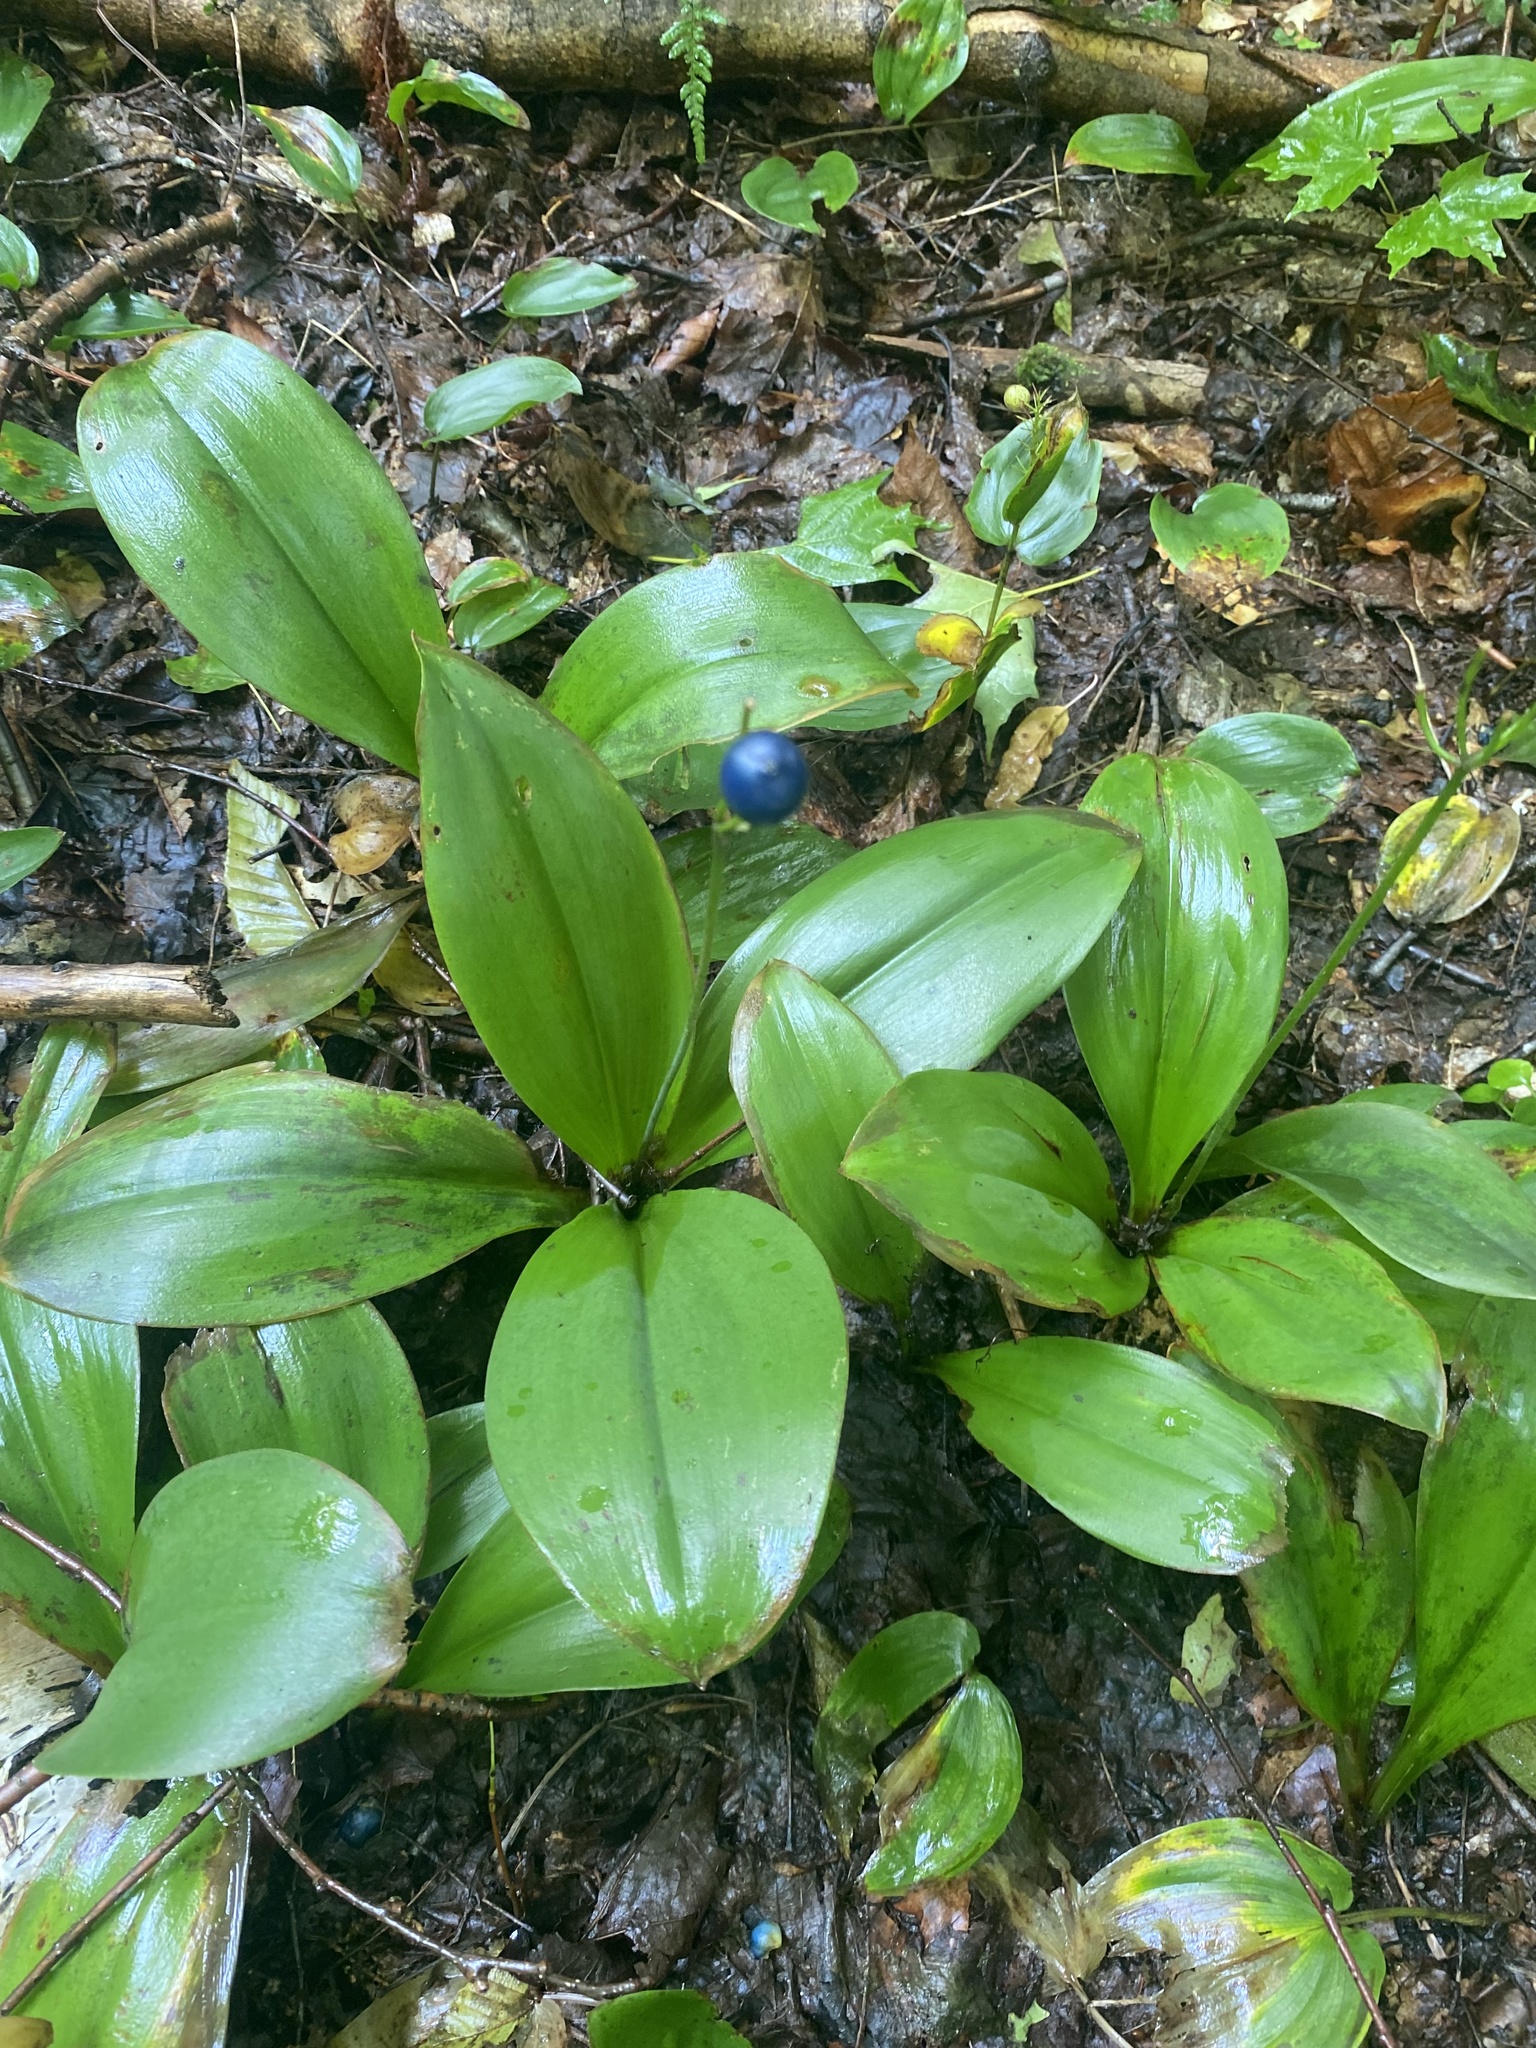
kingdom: Plantae
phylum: Tracheophyta
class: Liliopsida
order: Liliales
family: Liliaceae
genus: Clintonia
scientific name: Clintonia borealis
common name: Yellow clintonia
